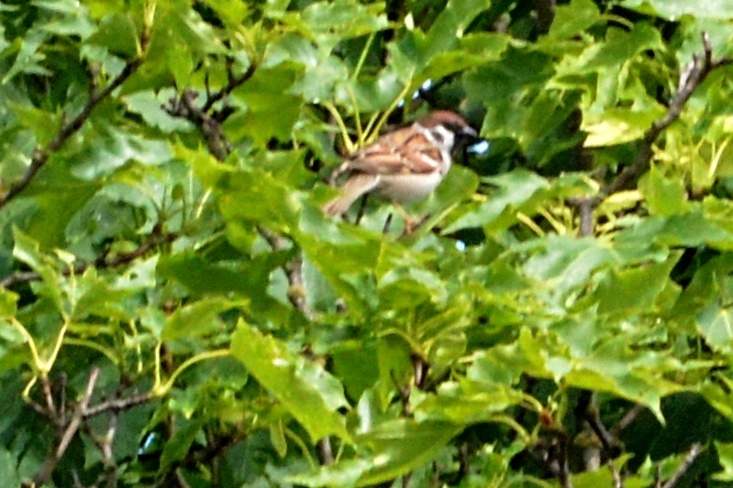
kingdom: Animalia
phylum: Chordata
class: Aves
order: Passeriformes
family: Passeridae
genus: Passer
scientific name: Passer montanus
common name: Eurasian tree sparrow
